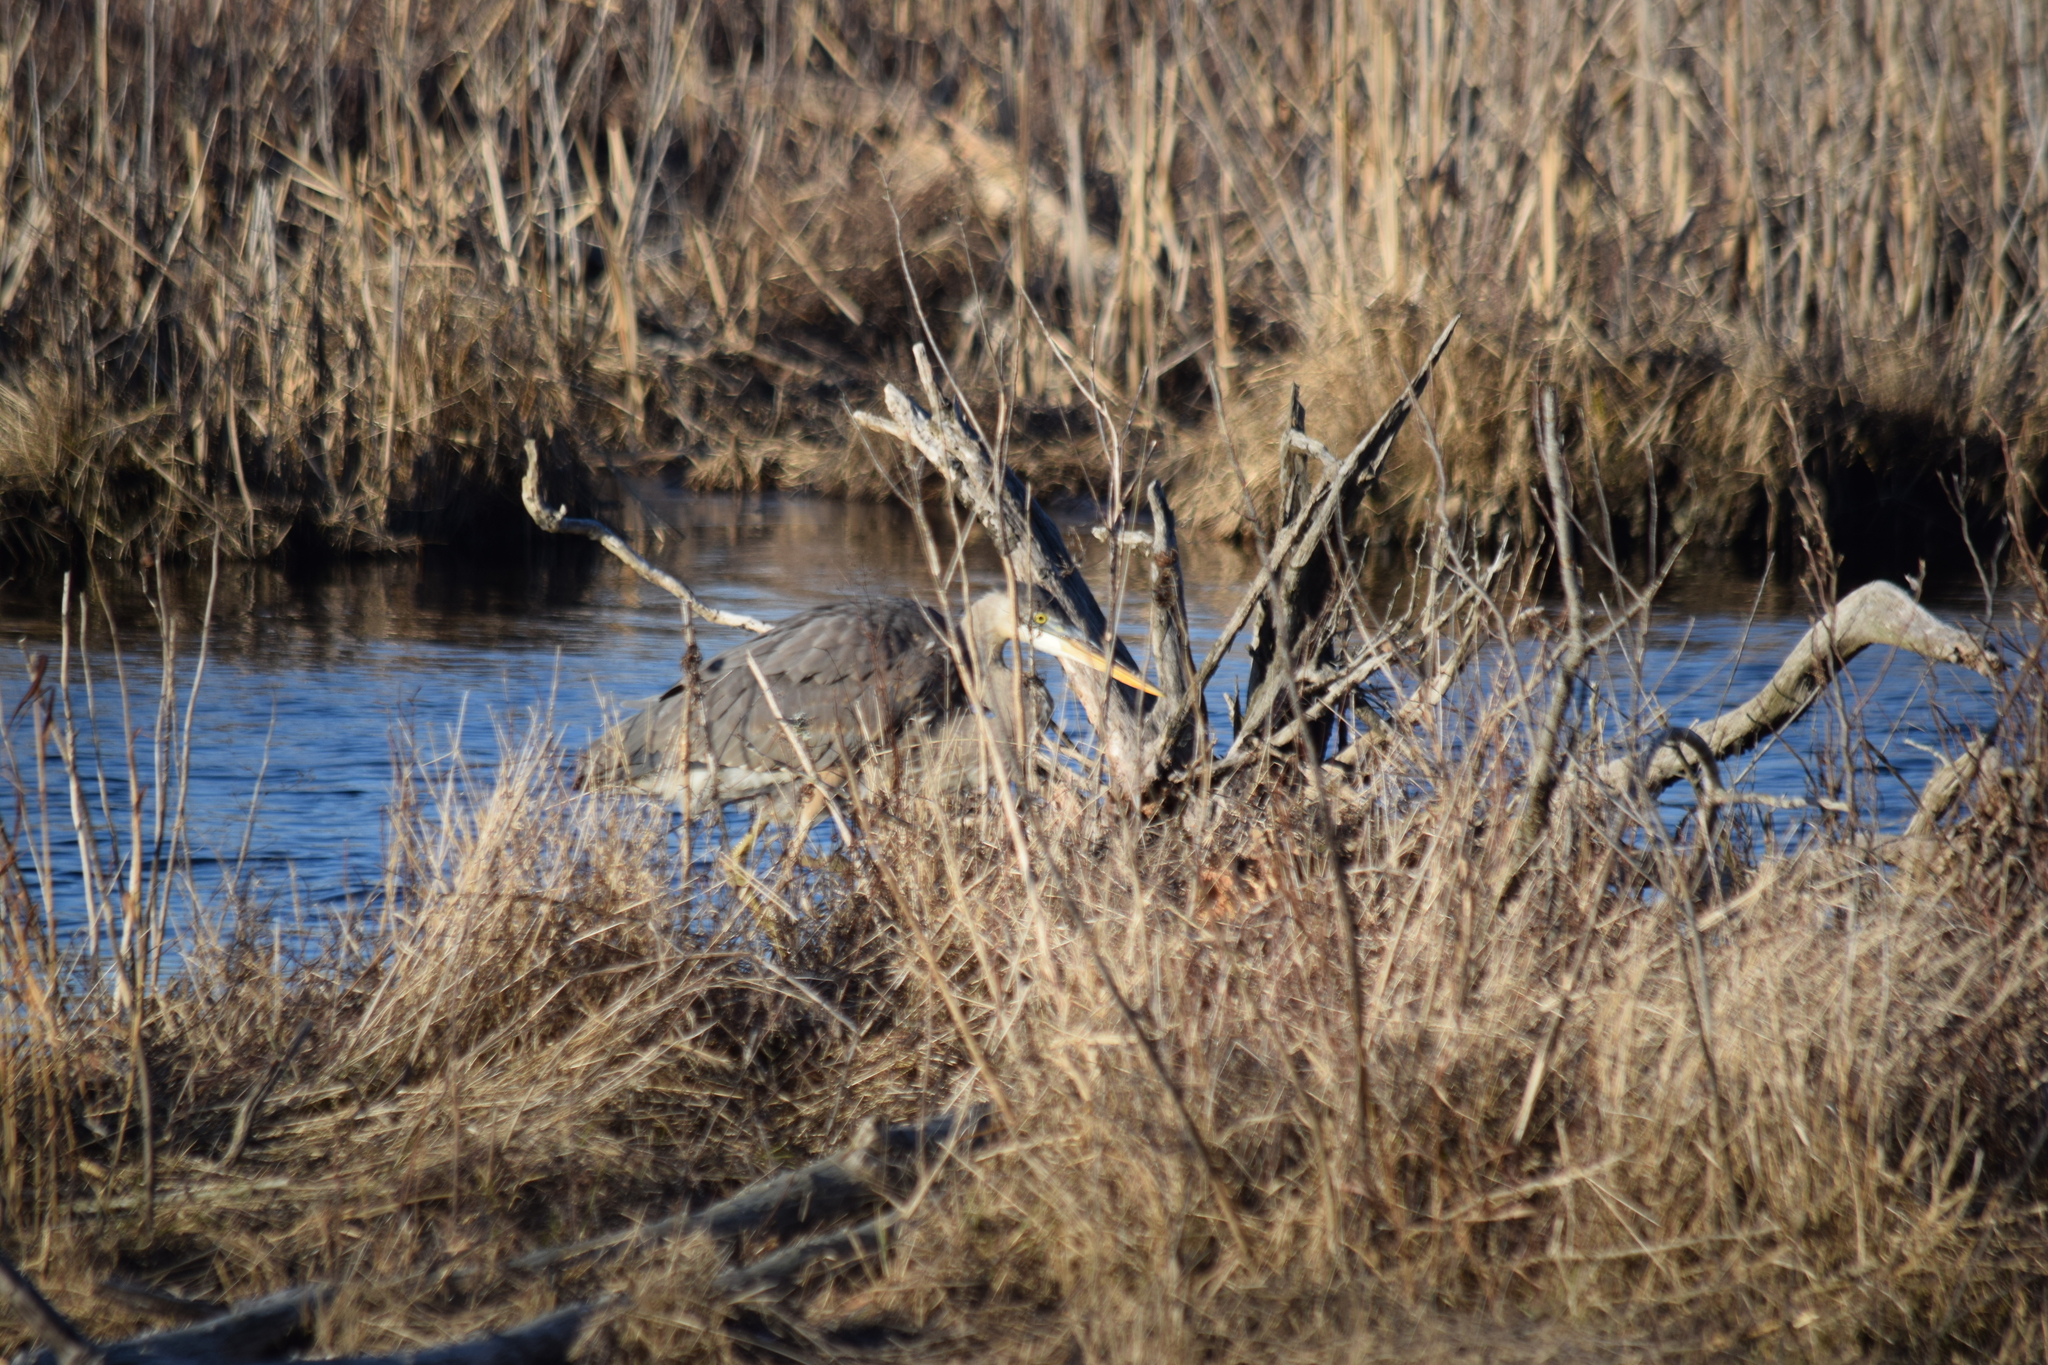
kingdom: Animalia
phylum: Chordata
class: Aves
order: Pelecaniformes
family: Ardeidae
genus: Ardea
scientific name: Ardea herodias
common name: Great blue heron
